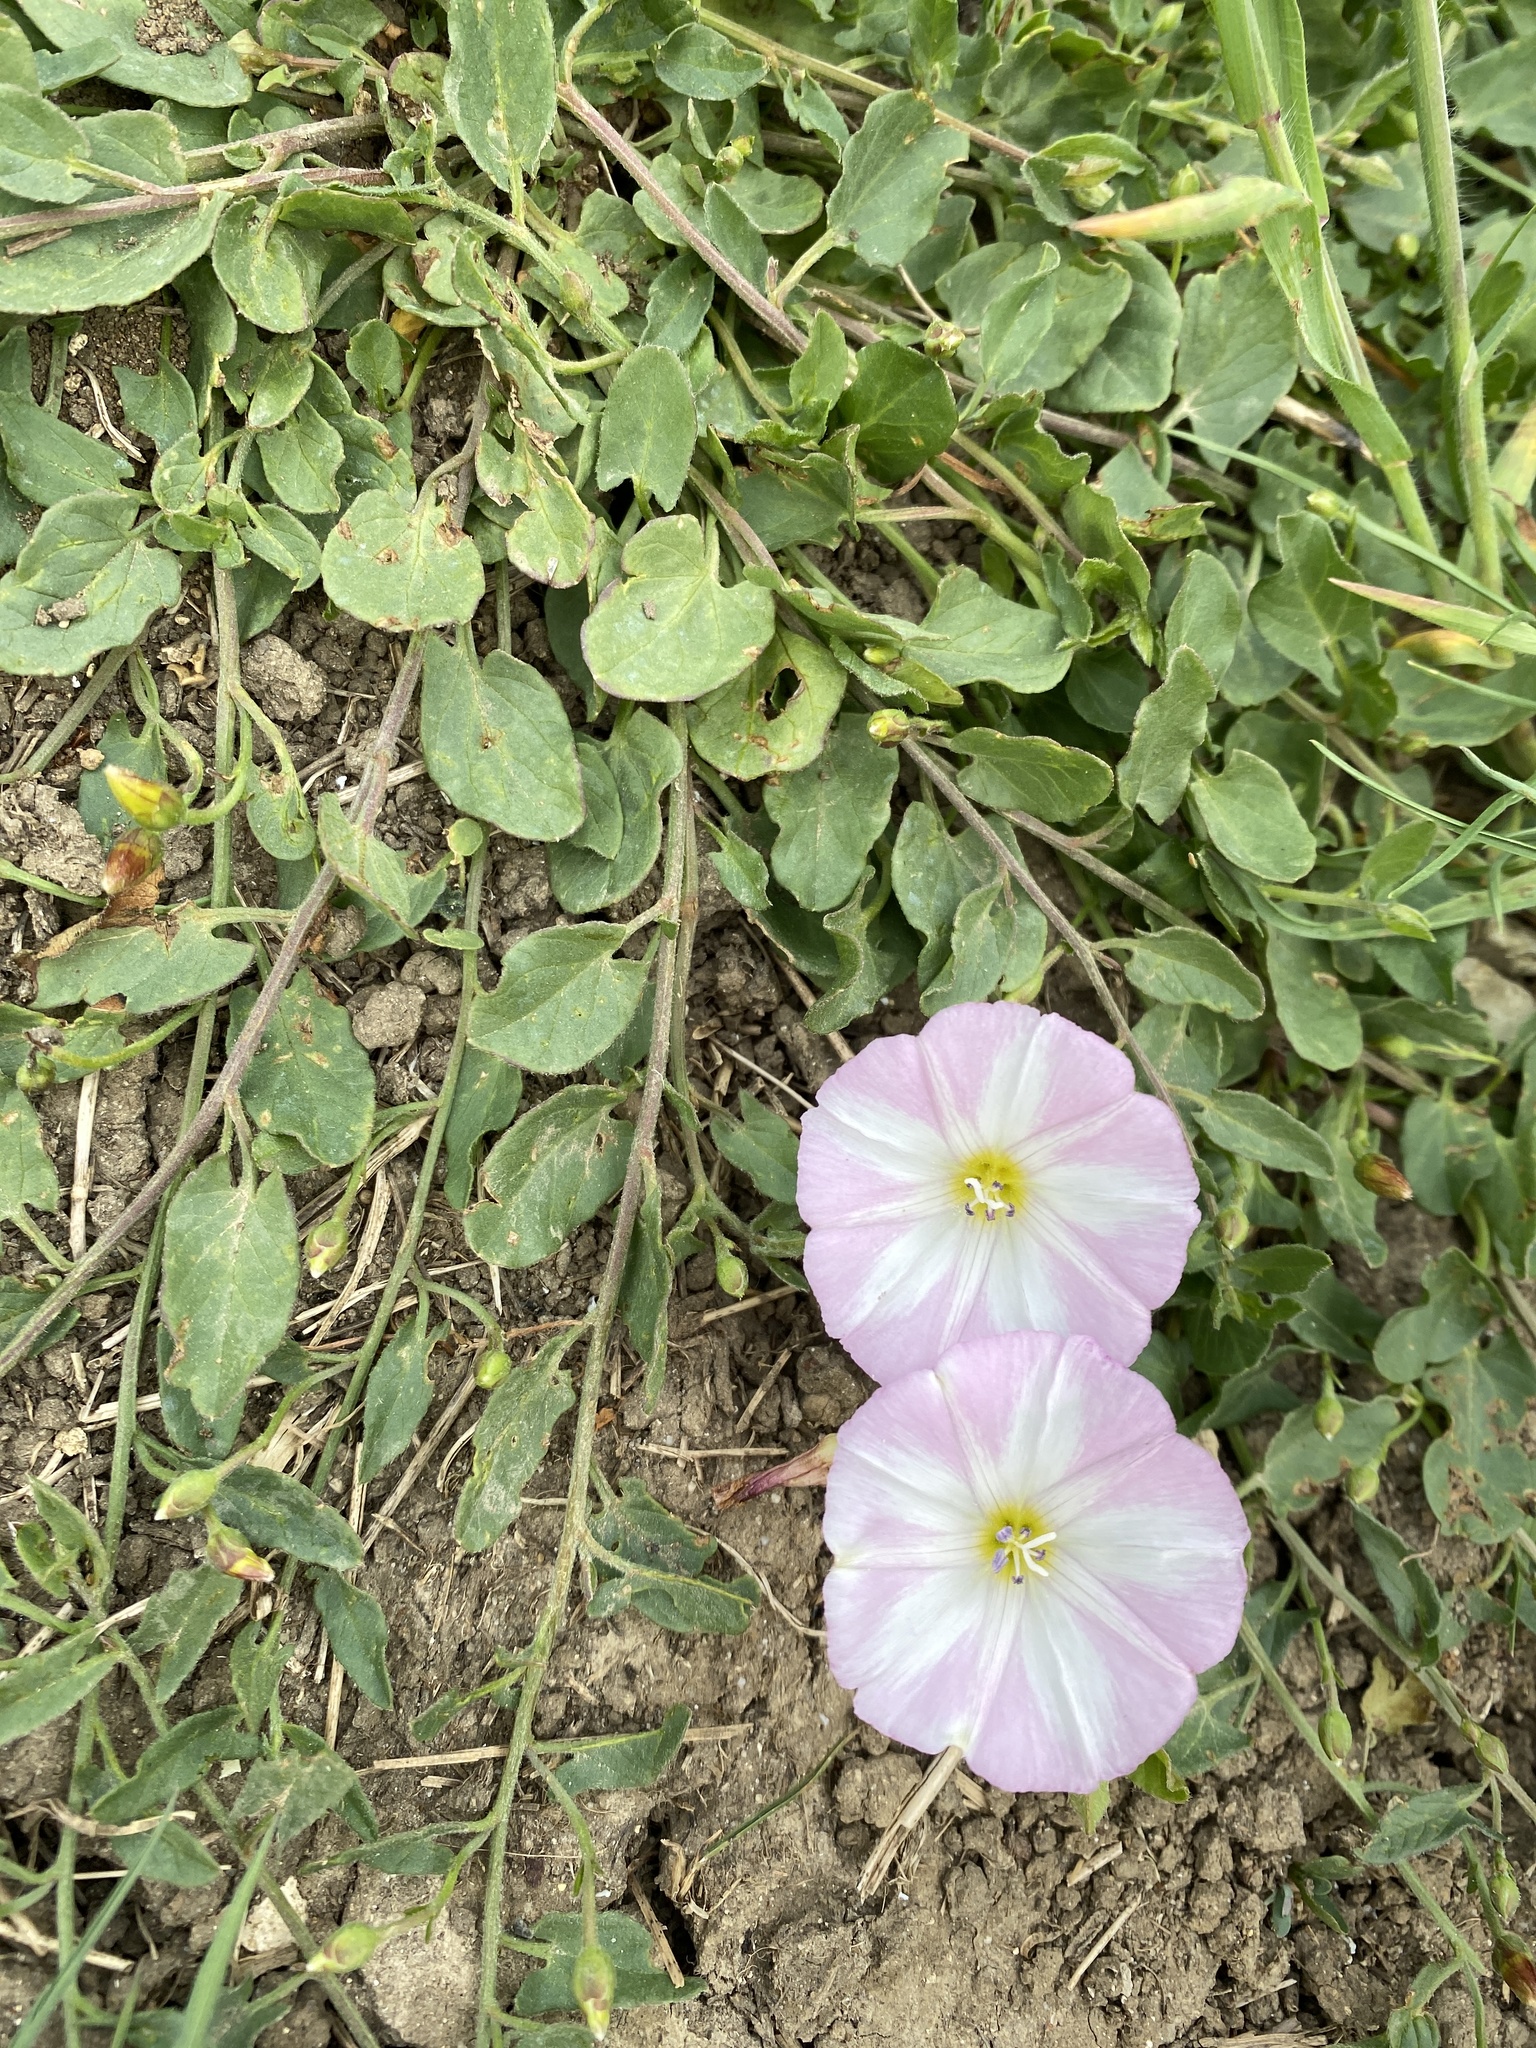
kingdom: Plantae
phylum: Tracheophyta
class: Magnoliopsida
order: Solanales
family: Convolvulaceae
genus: Convolvulus
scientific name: Convolvulus arvensis
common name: Field bindweed
